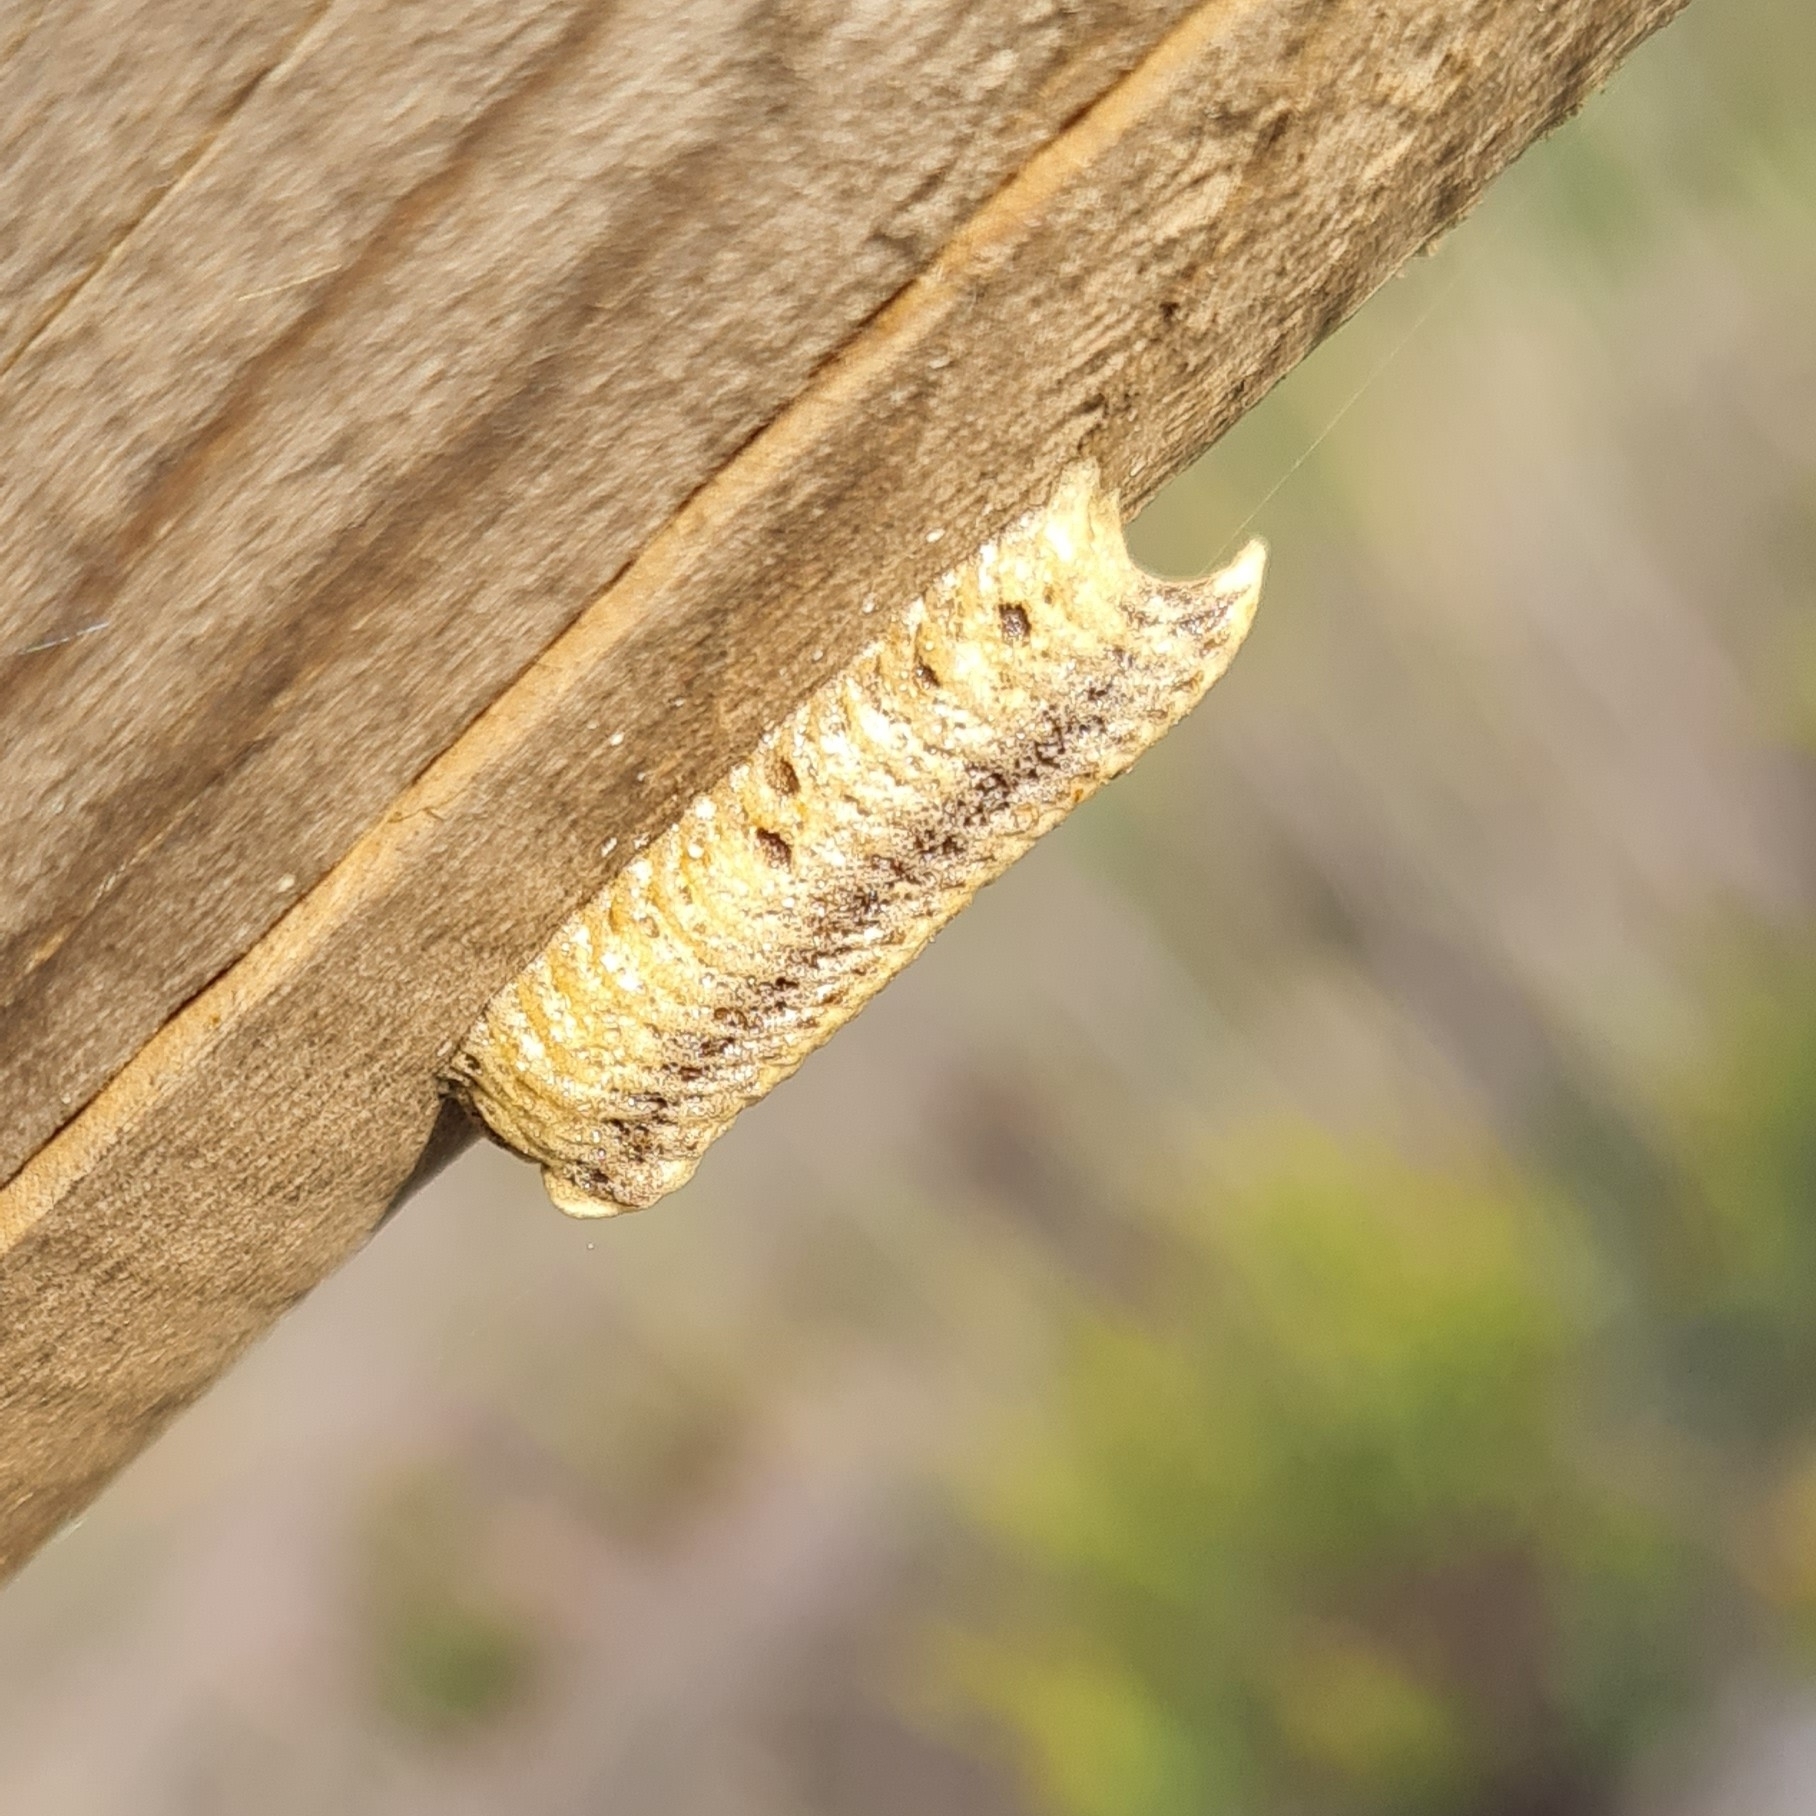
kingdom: Animalia
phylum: Arthropoda
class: Insecta
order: Mantodea
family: Eremiaphilidae
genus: Iris
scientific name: Iris oratoria
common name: Mediterranean mantis
